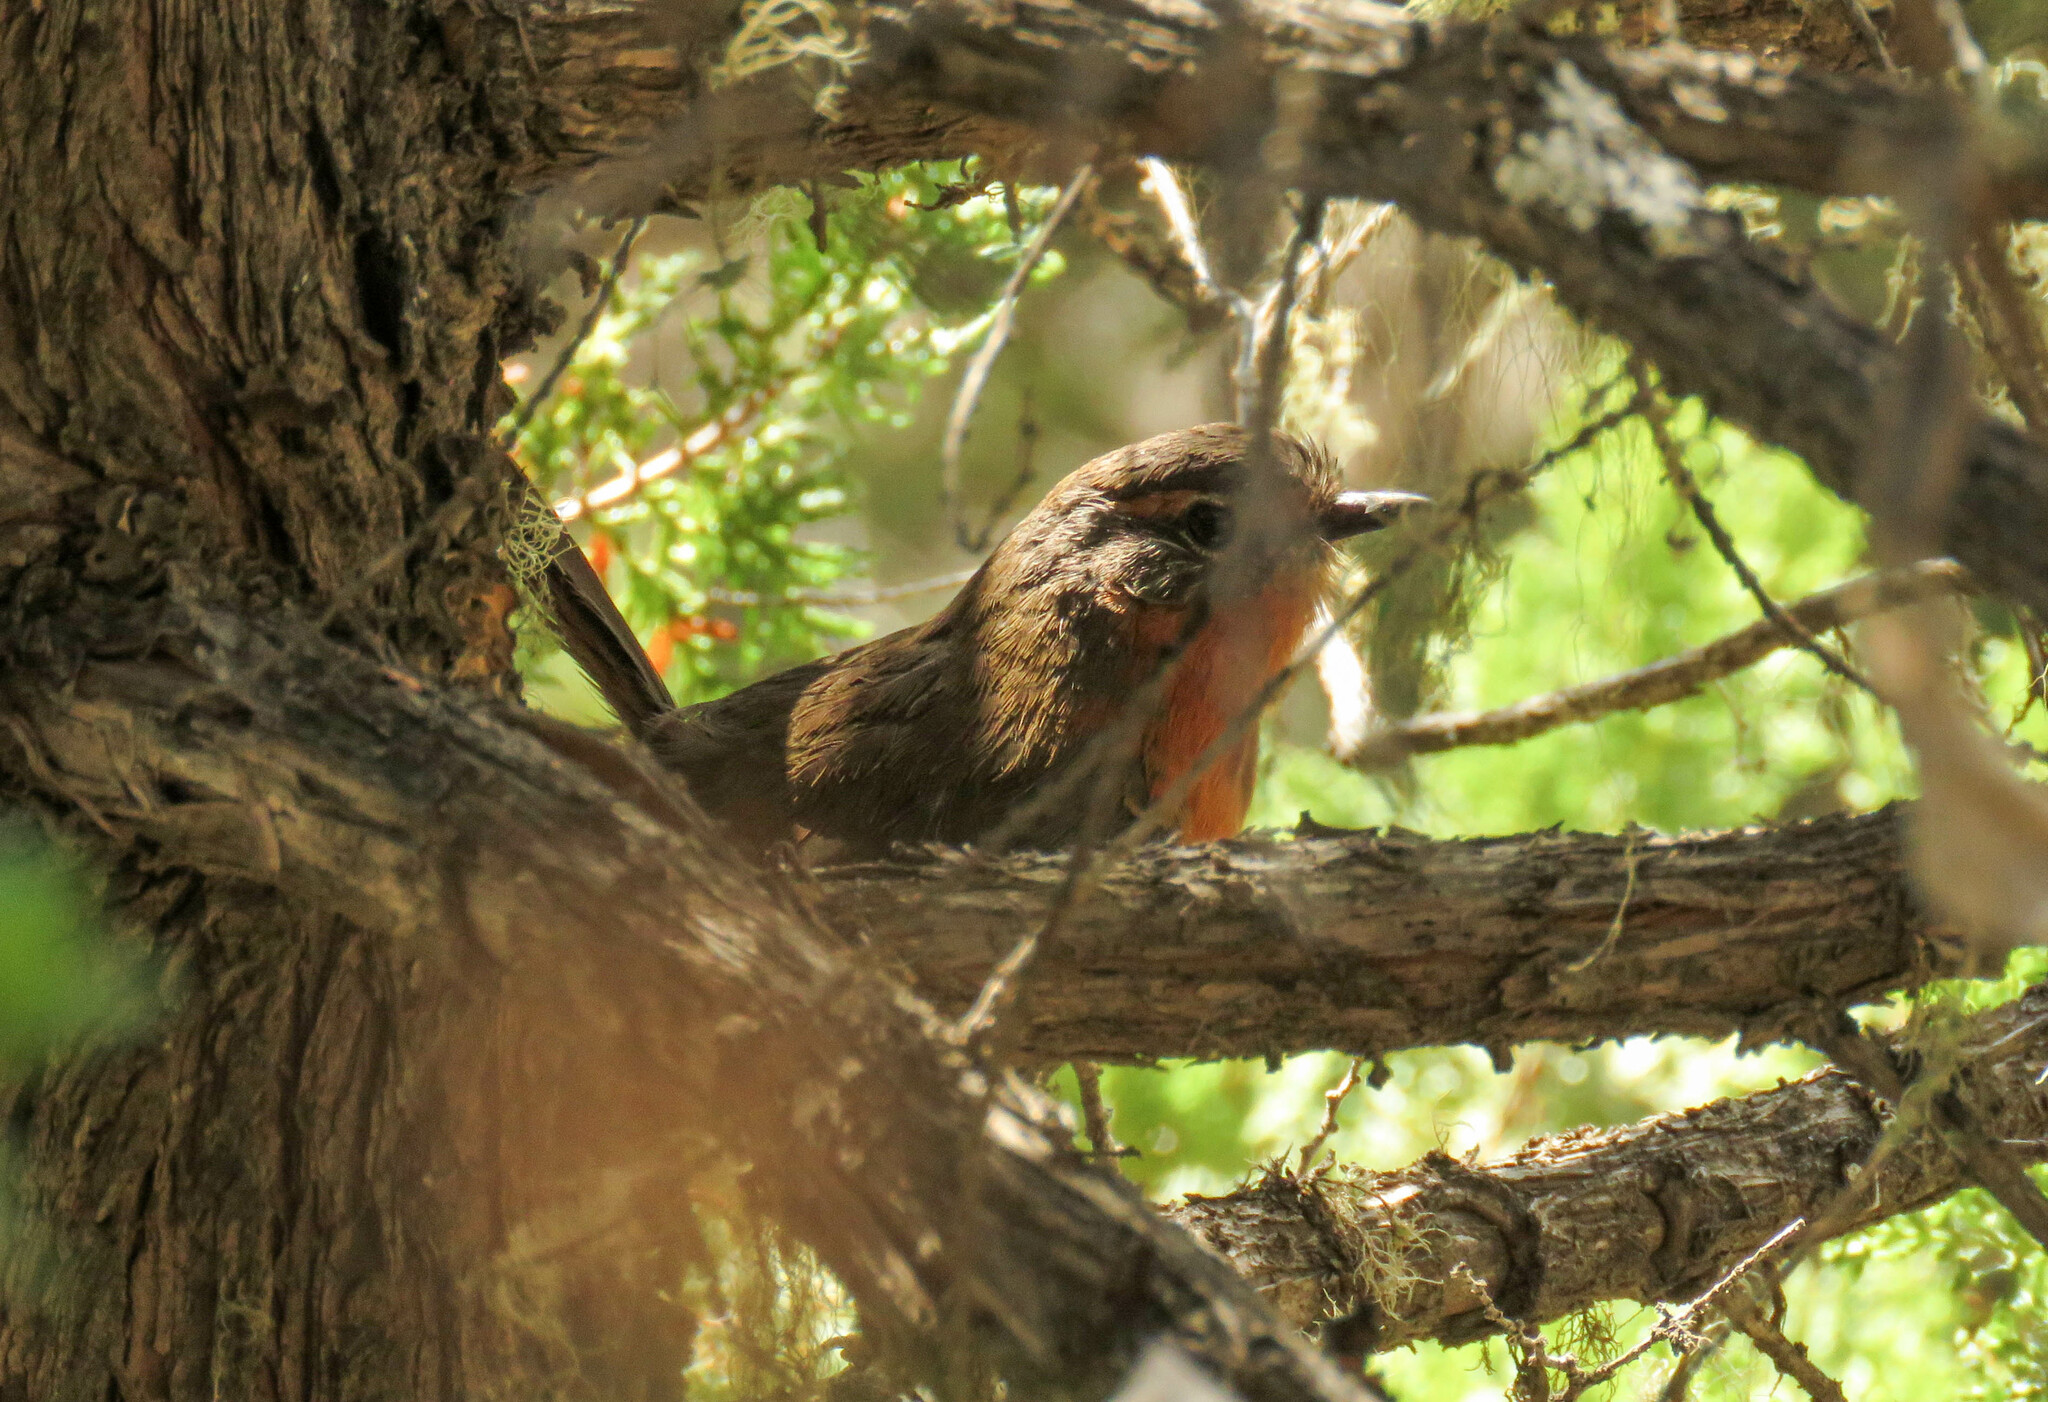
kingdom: Animalia
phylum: Chordata
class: Aves
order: Passeriformes
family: Rhinocryptidae
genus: Scelorchilus
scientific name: Scelorchilus rubecula
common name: Chucao tapaculo
